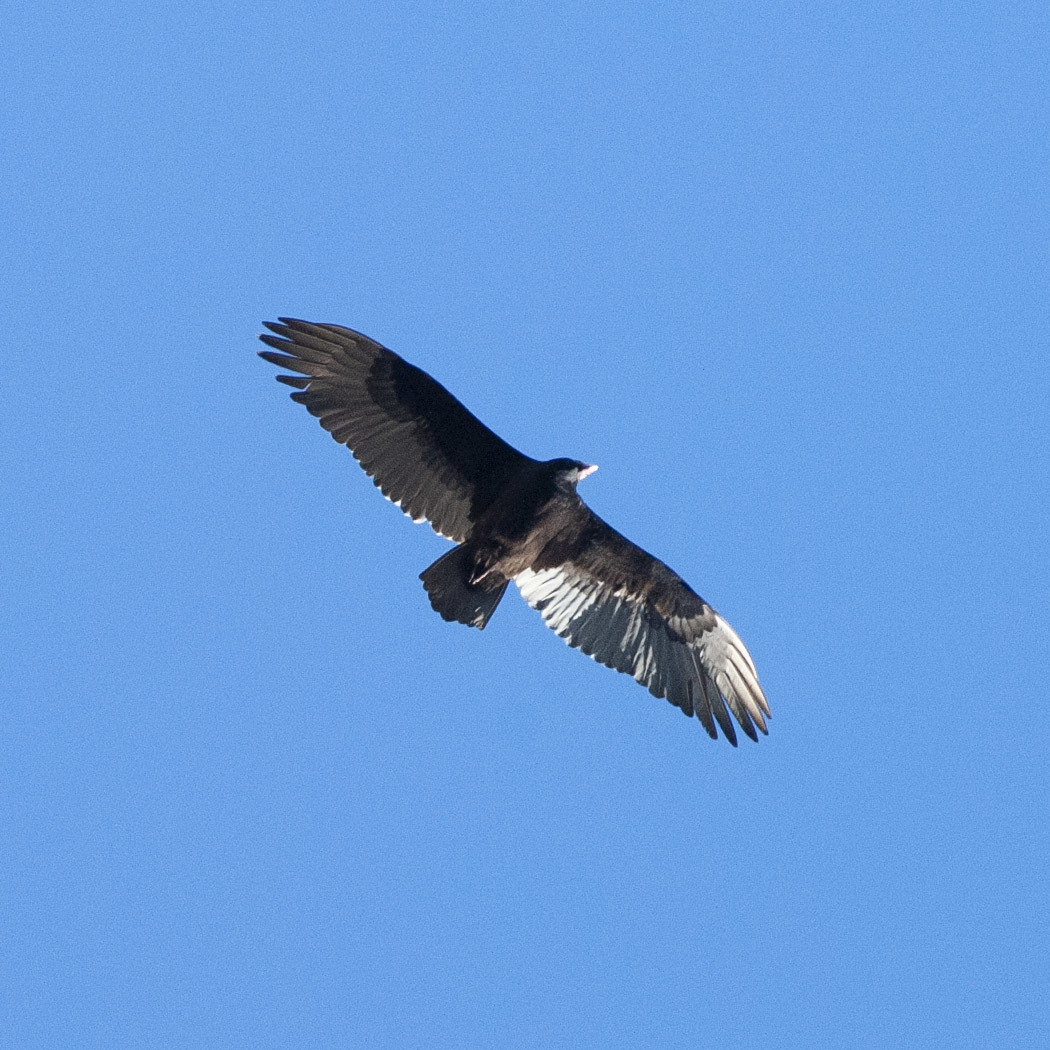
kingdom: Animalia
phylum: Chordata
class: Aves
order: Accipitriformes
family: Cathartidae
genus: Cathartes
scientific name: Cathartes aura
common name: Turkey vulture
